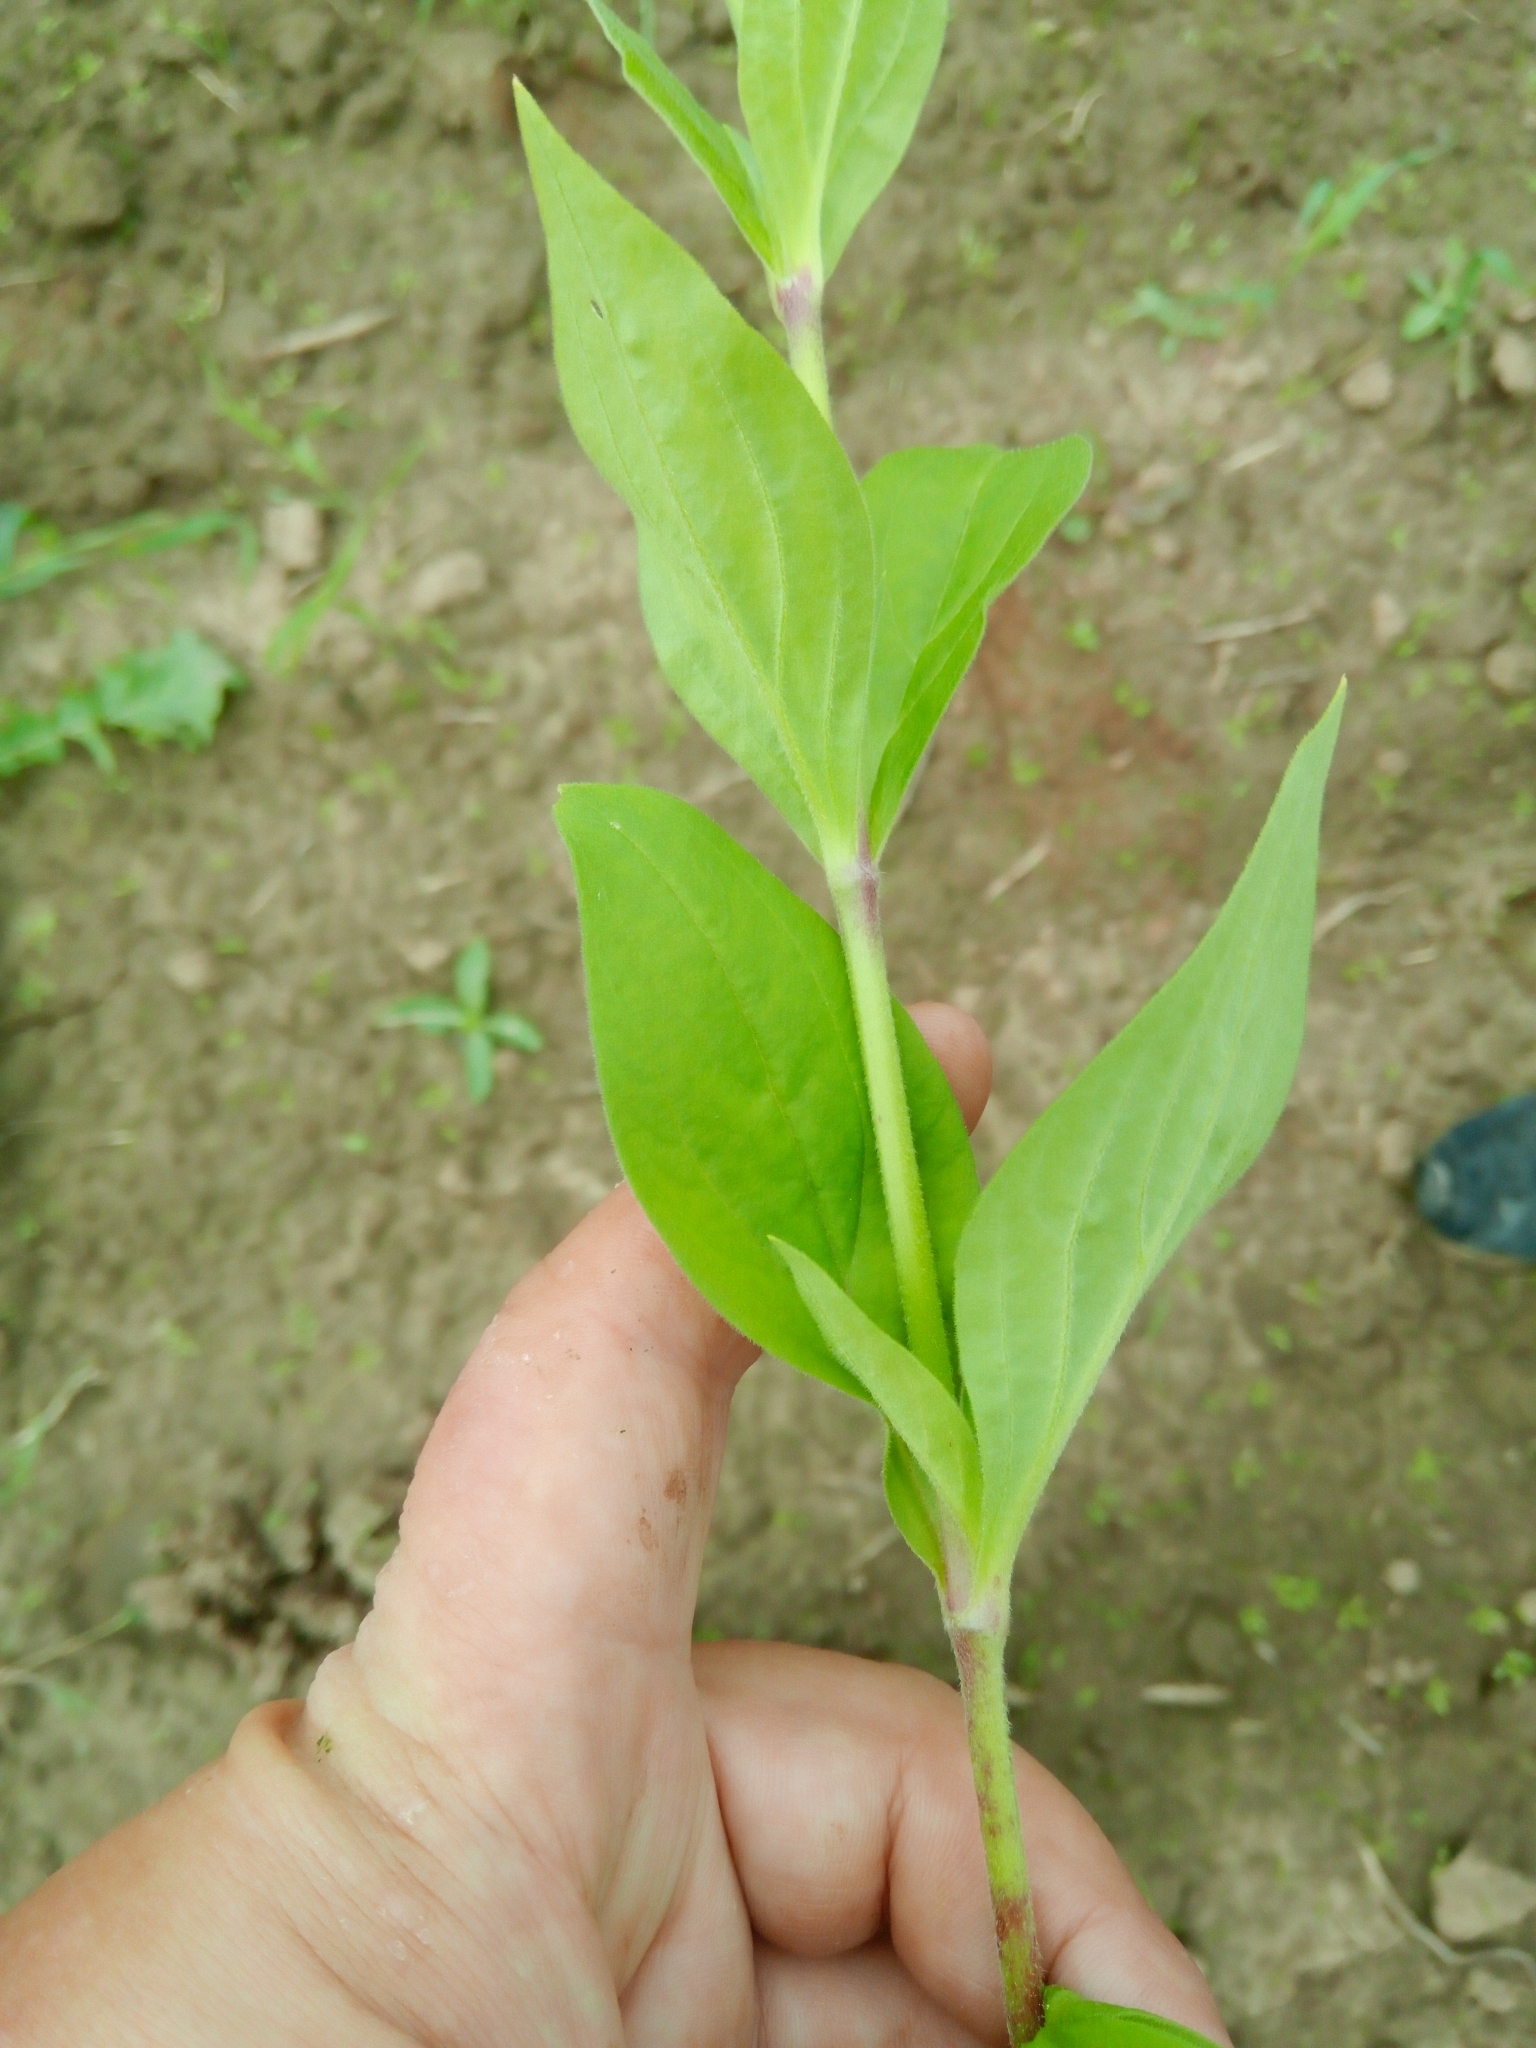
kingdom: Plantae
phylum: Tracheophyta
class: Magnoliopsida
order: Caryophyllales
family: Caryophyllaceae
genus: Silene
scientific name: Silene latifolia
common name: White campion
